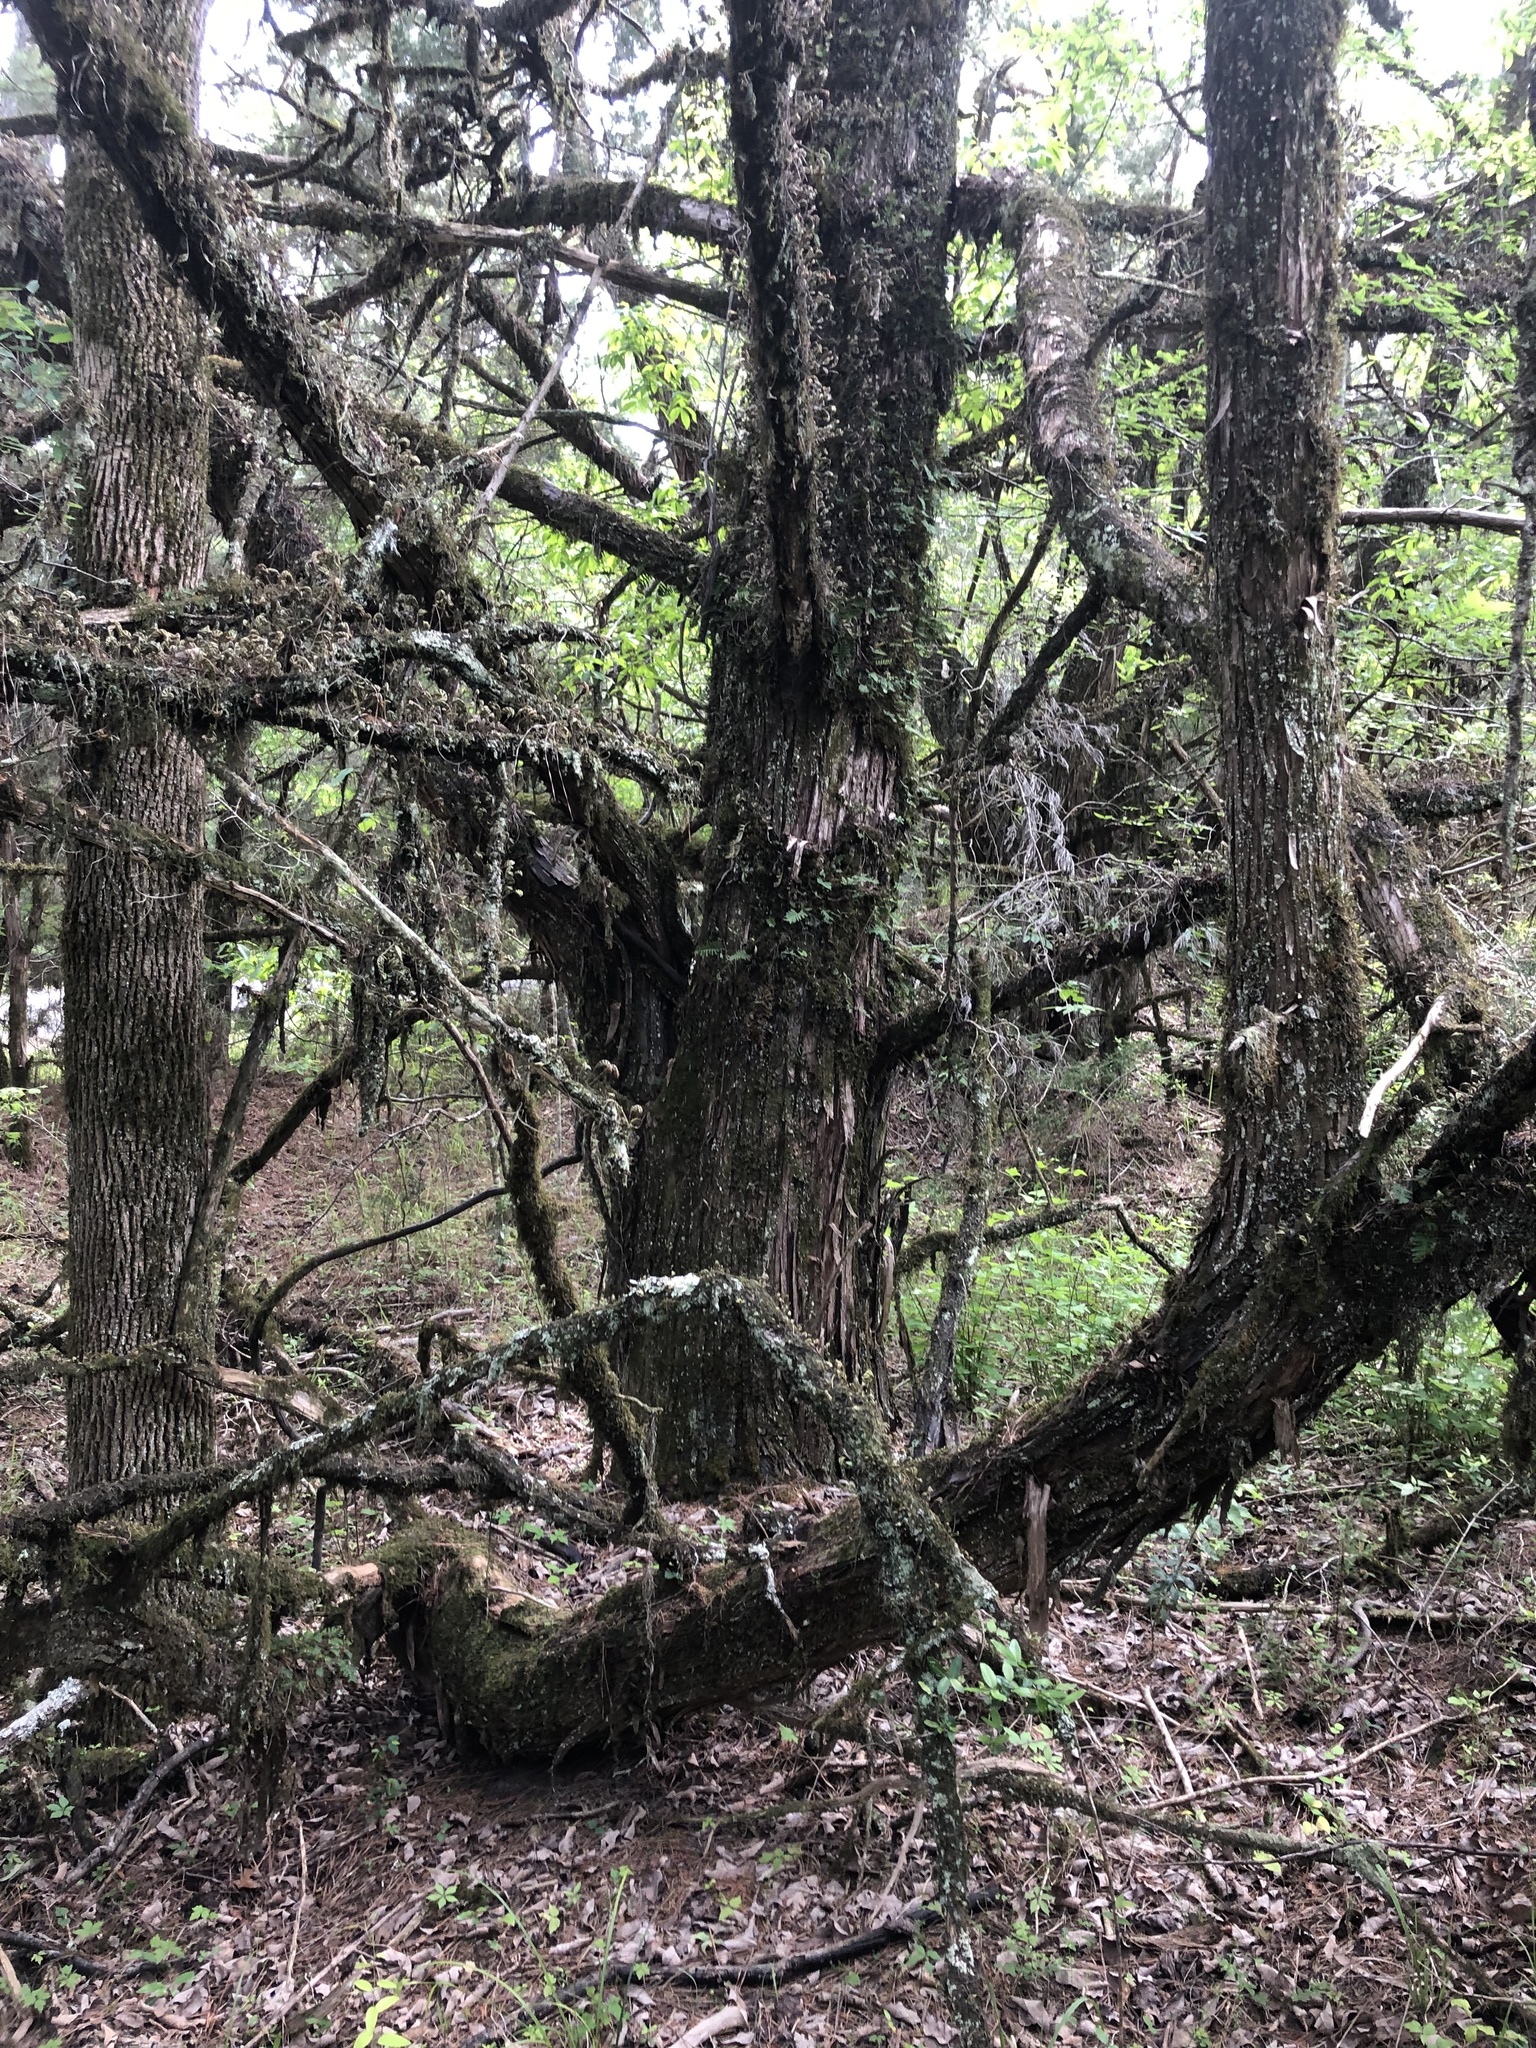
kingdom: Plantae
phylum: Tracheophyta
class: Pinopsida
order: Pinales
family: Cupressaceae
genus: Juniperus
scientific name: Juniperus virginiana
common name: Red juniper
